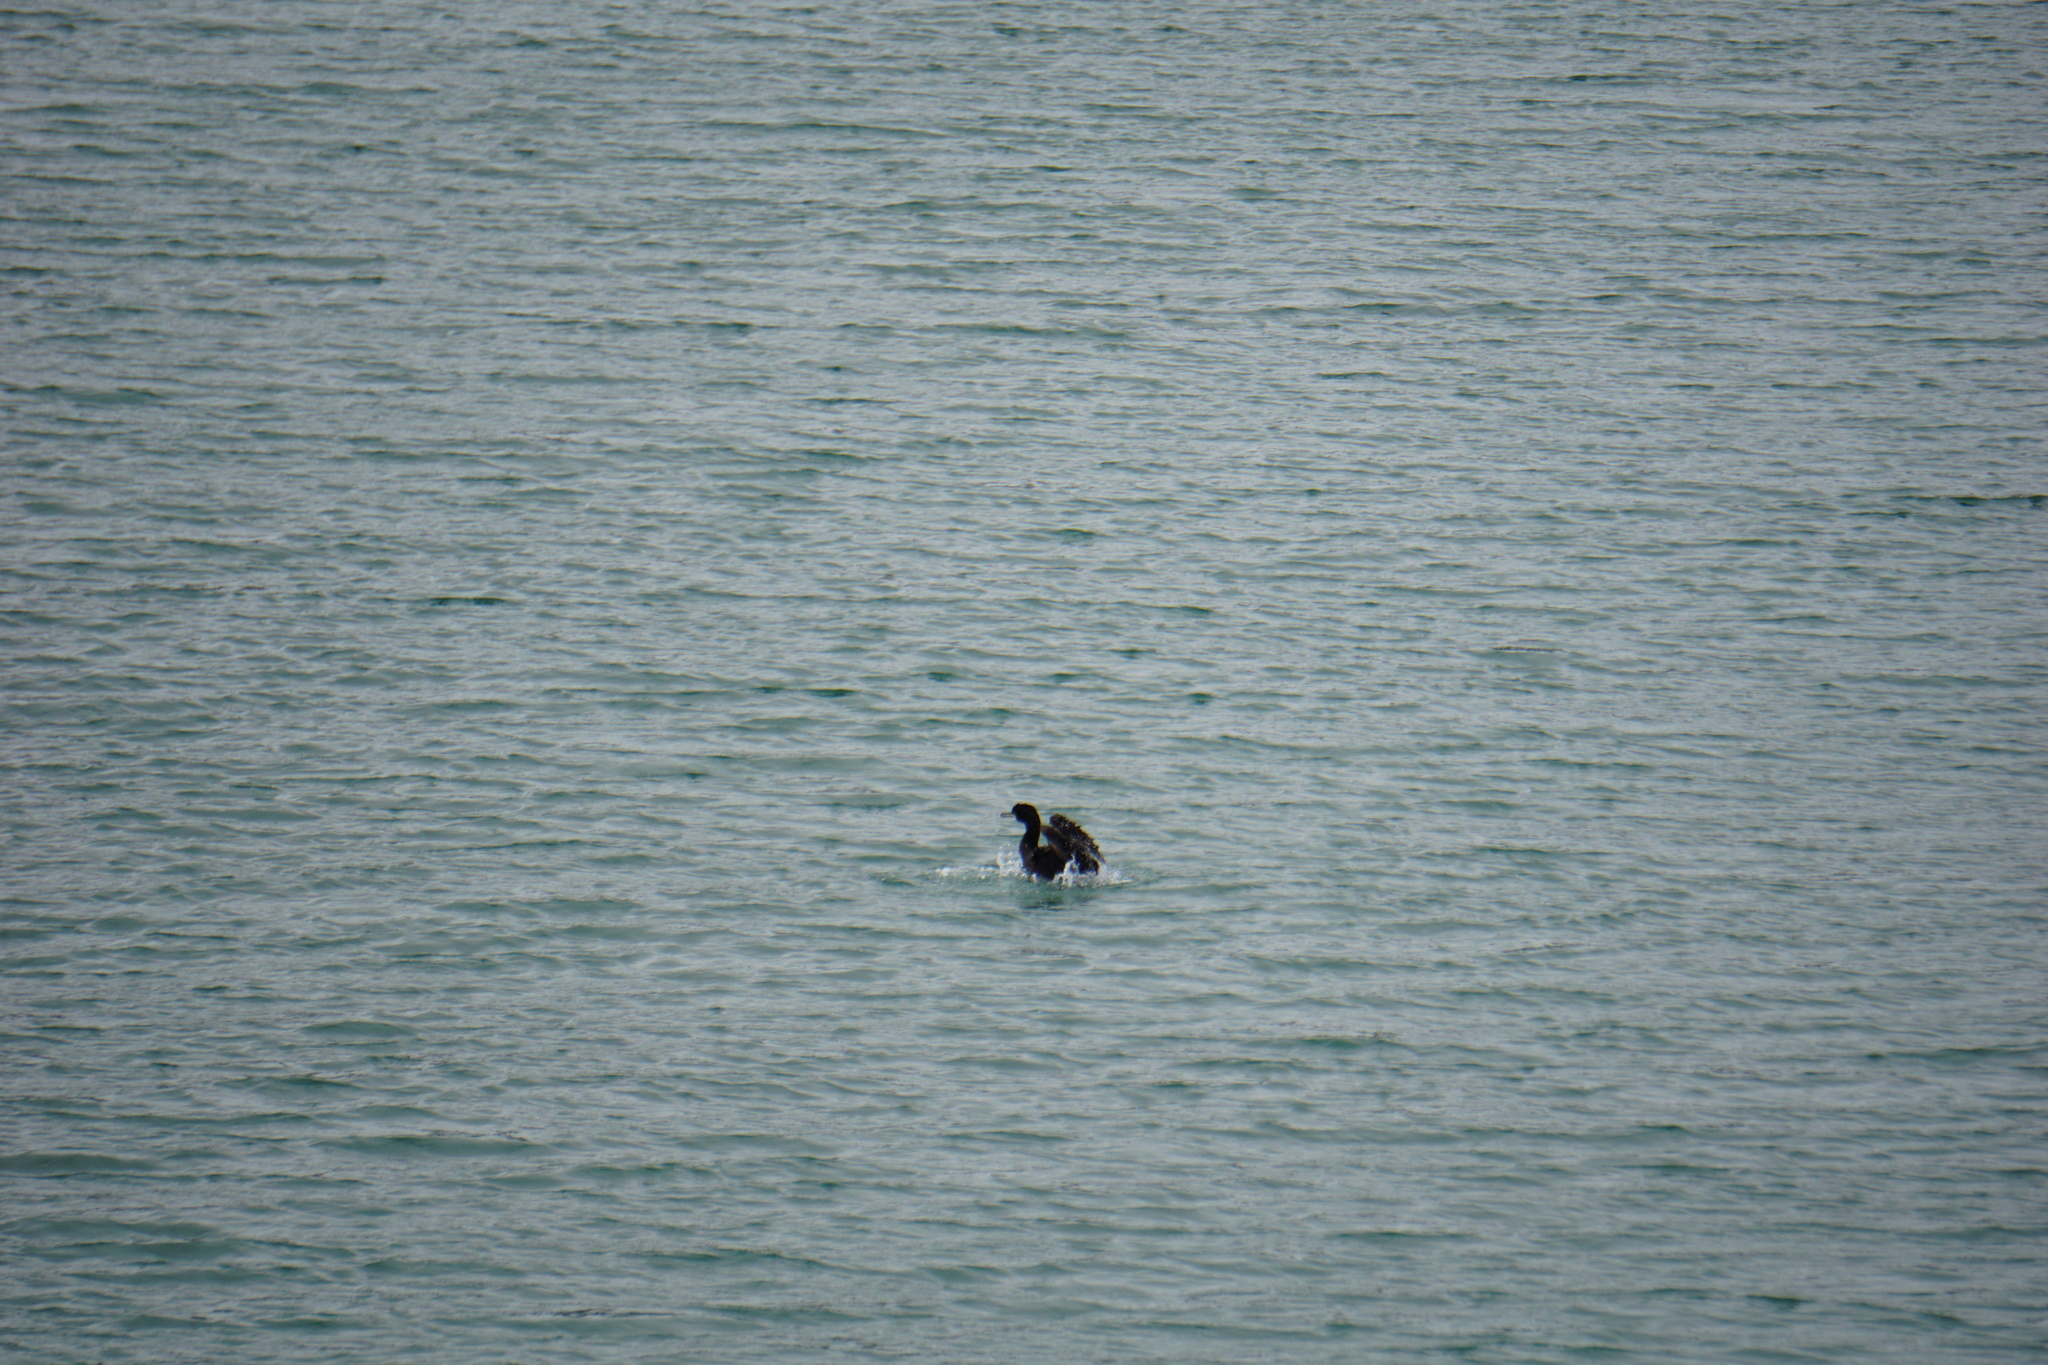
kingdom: Animalia
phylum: Chordata
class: Aves
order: Suliformes
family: Phalacrocoracidae
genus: Phalacrocorax
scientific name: Phalacrocorax aristotelis
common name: European shag
